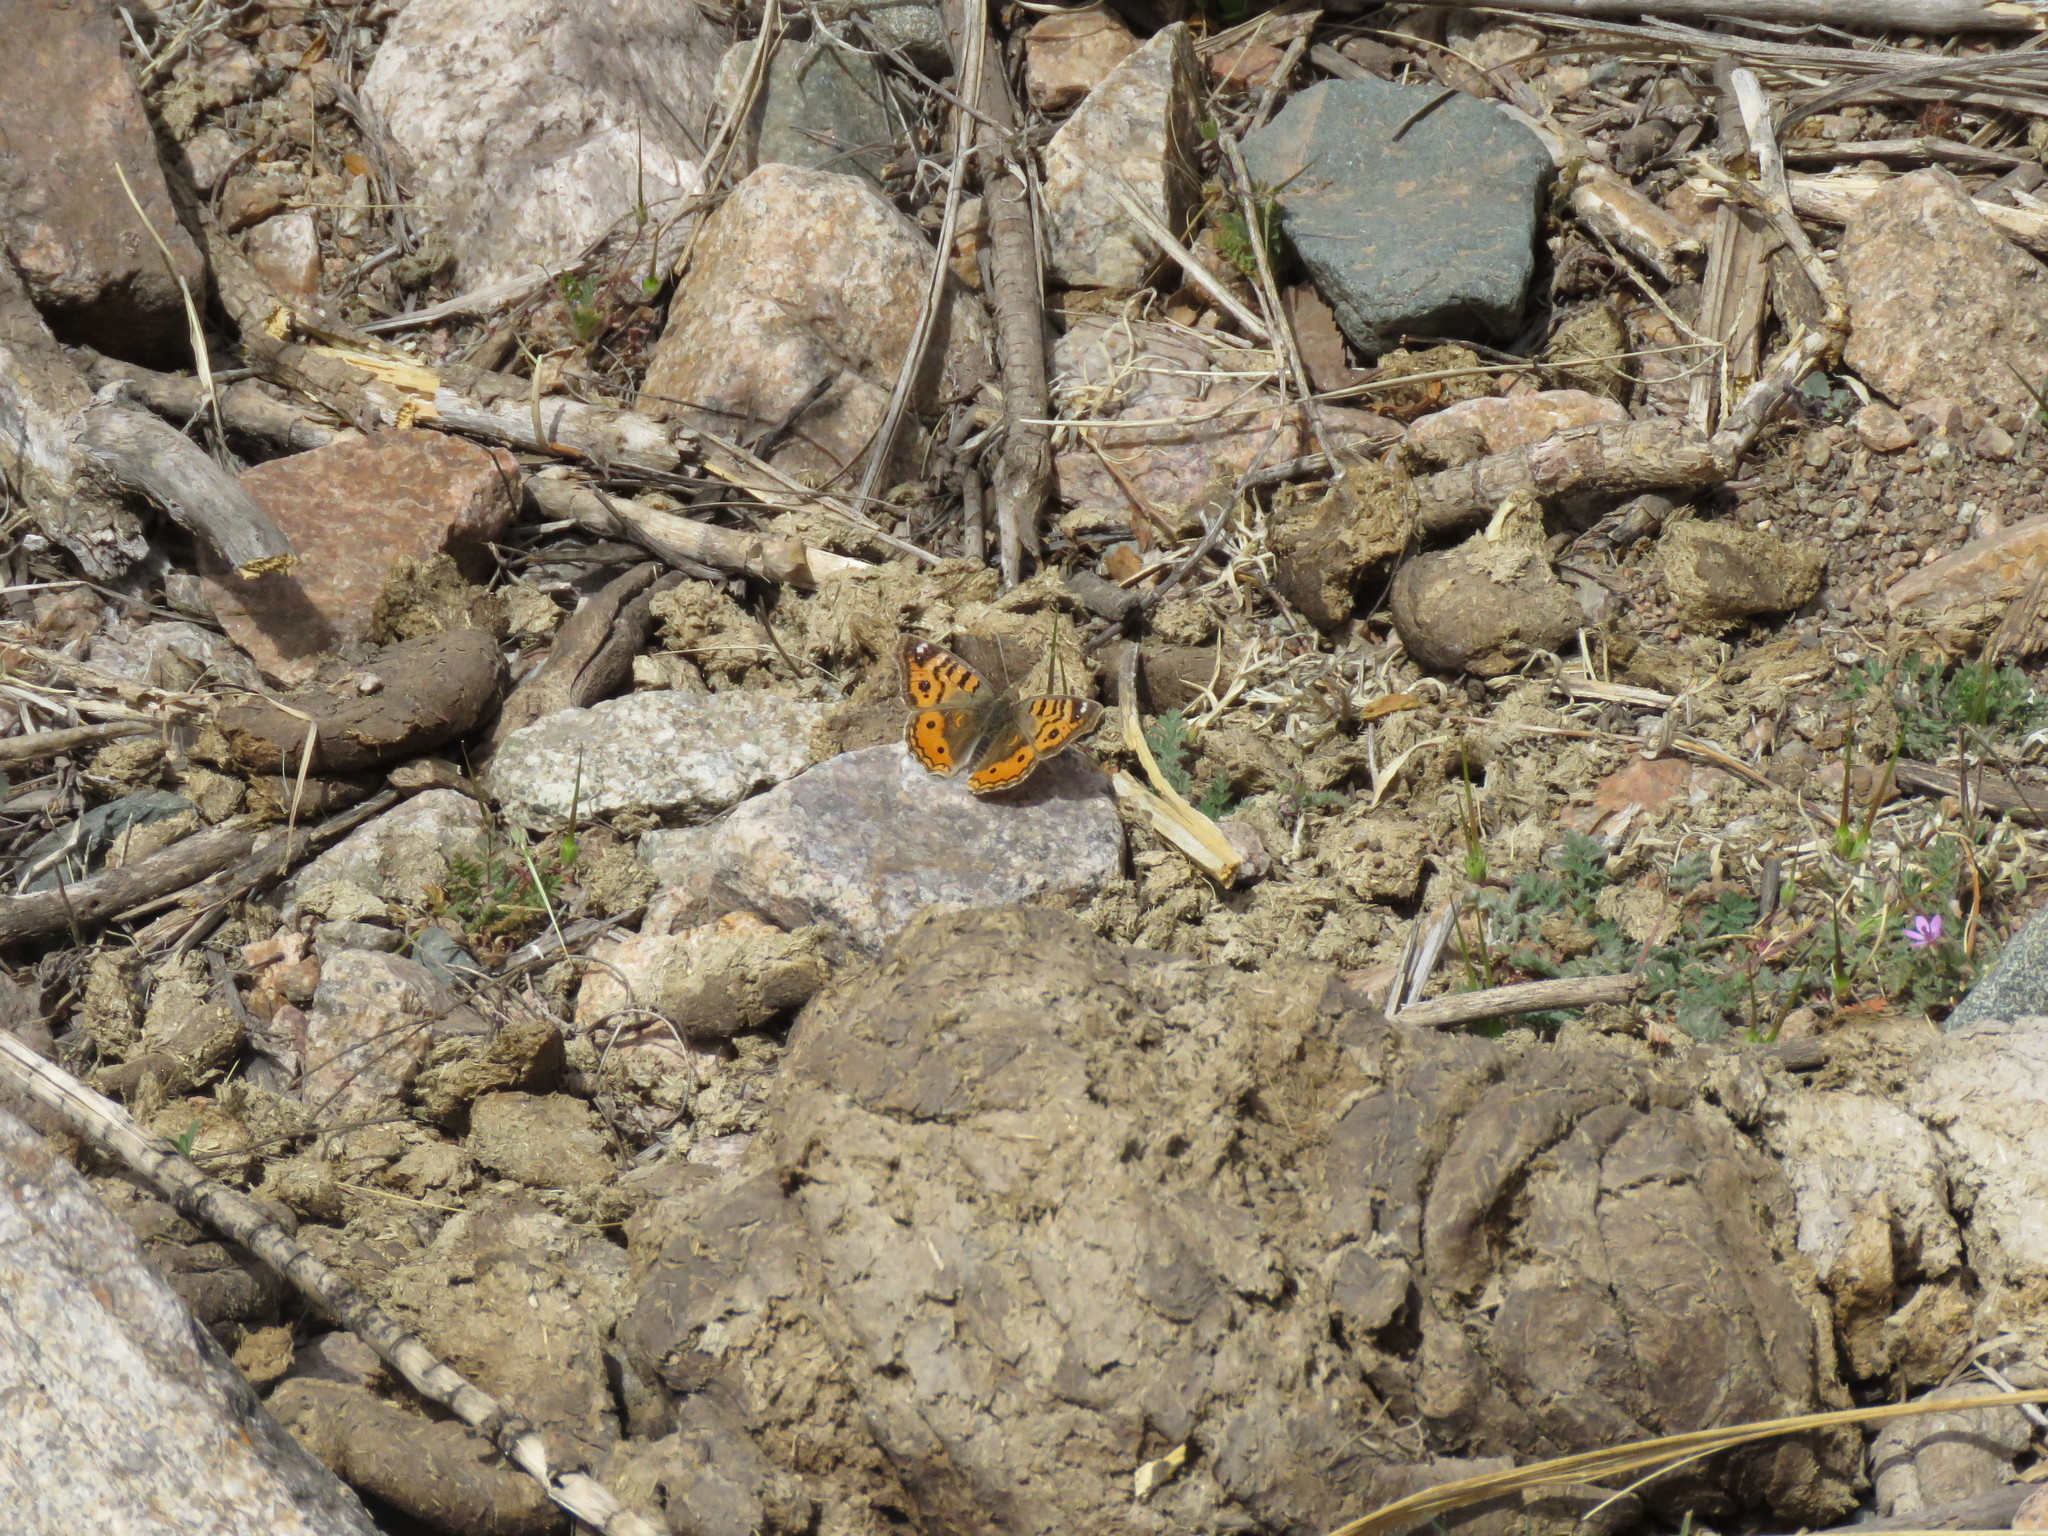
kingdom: Animalia
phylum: Arthropoda
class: Insecta
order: Lepidoptera
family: Nymphalidae
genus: Junonia
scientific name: Junonia vestina
